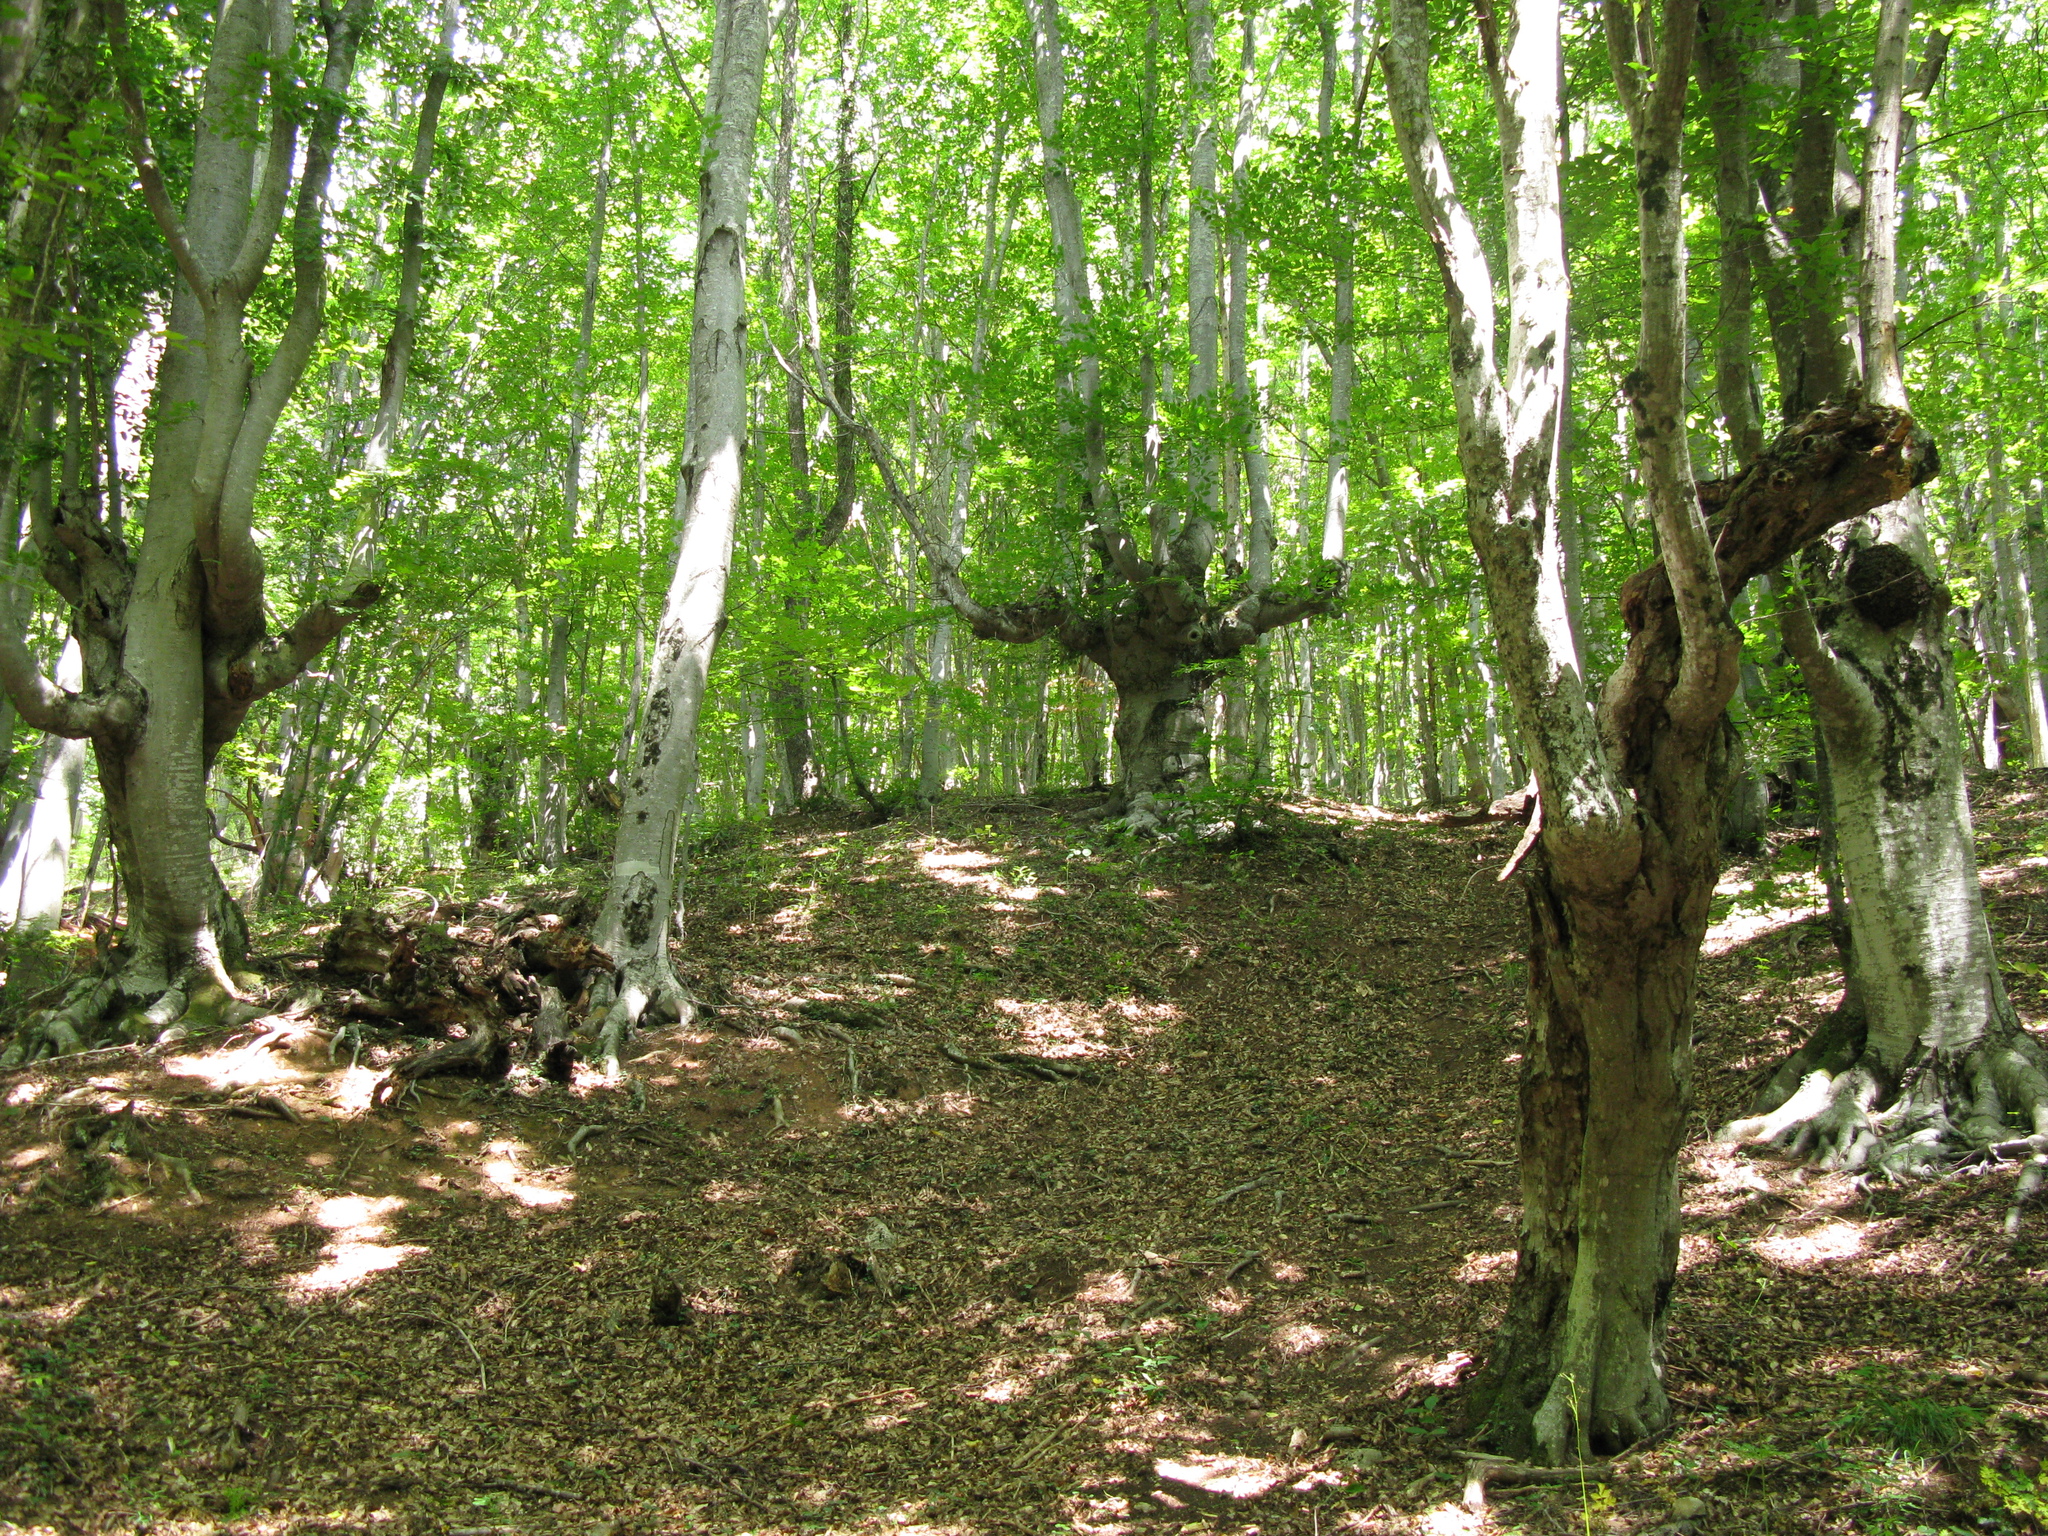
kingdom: Plantae
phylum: Tracheophyta
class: Magnoliopsida
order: Fagales
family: Fagaceae
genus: Fagus
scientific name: Fagus taurica
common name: Crimean beech
